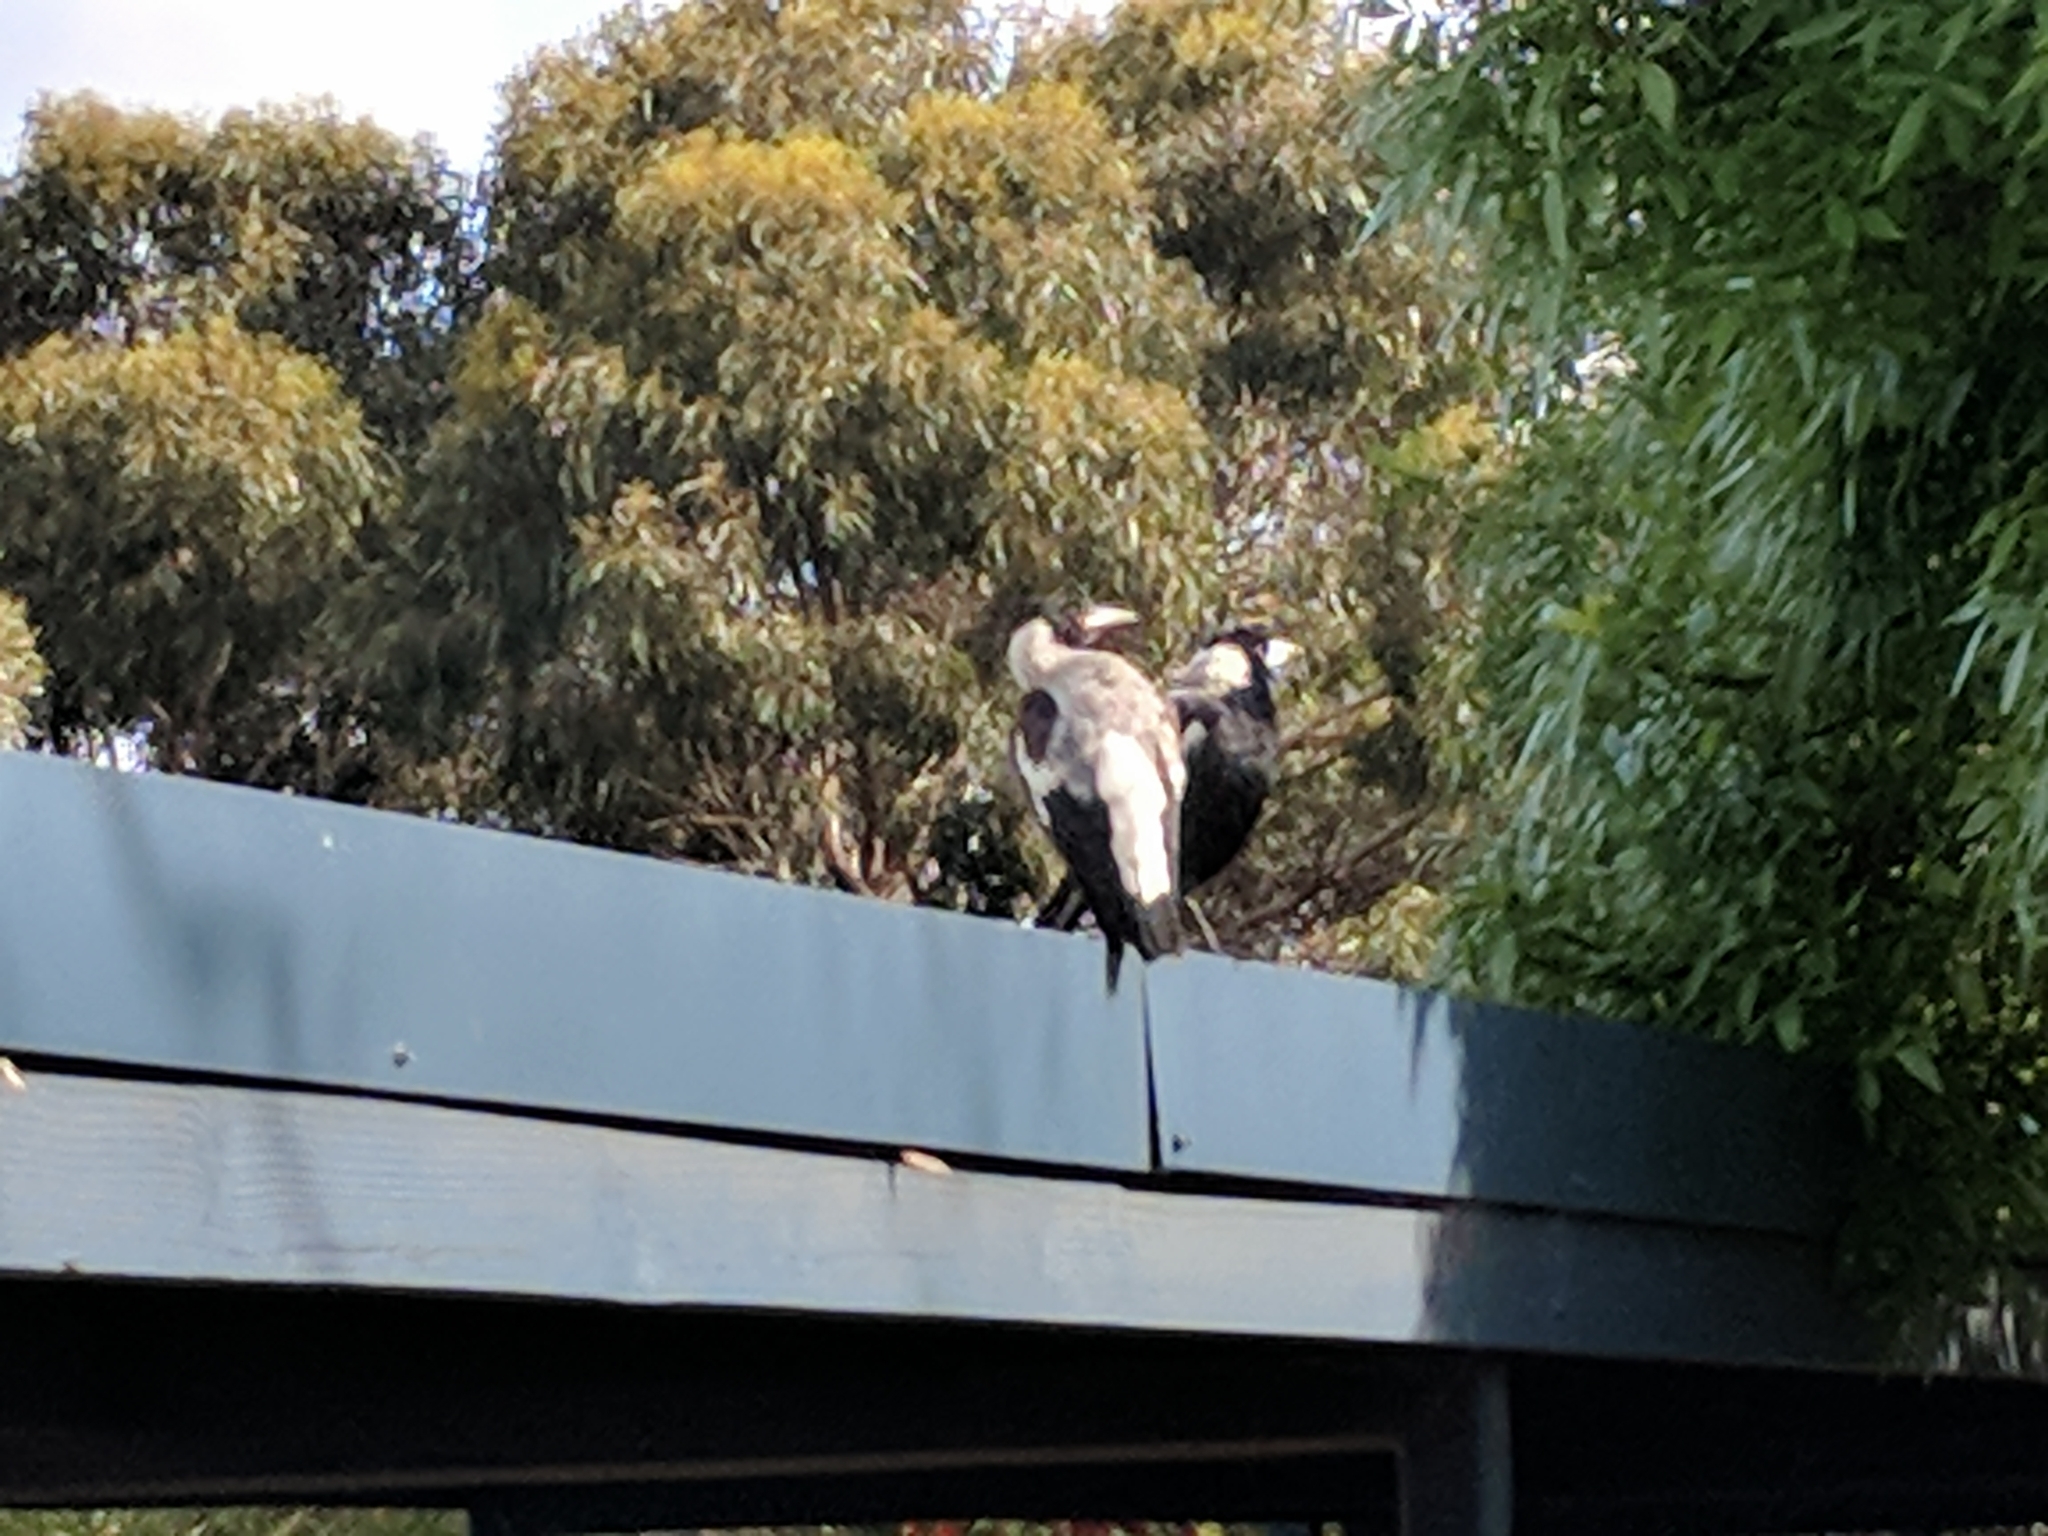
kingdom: Animalia
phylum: Chordata
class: Aves
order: Passeriformes
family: Cracticidae
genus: Gymnorhina
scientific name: Gymnorhina tibicen
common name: Australian magpie
